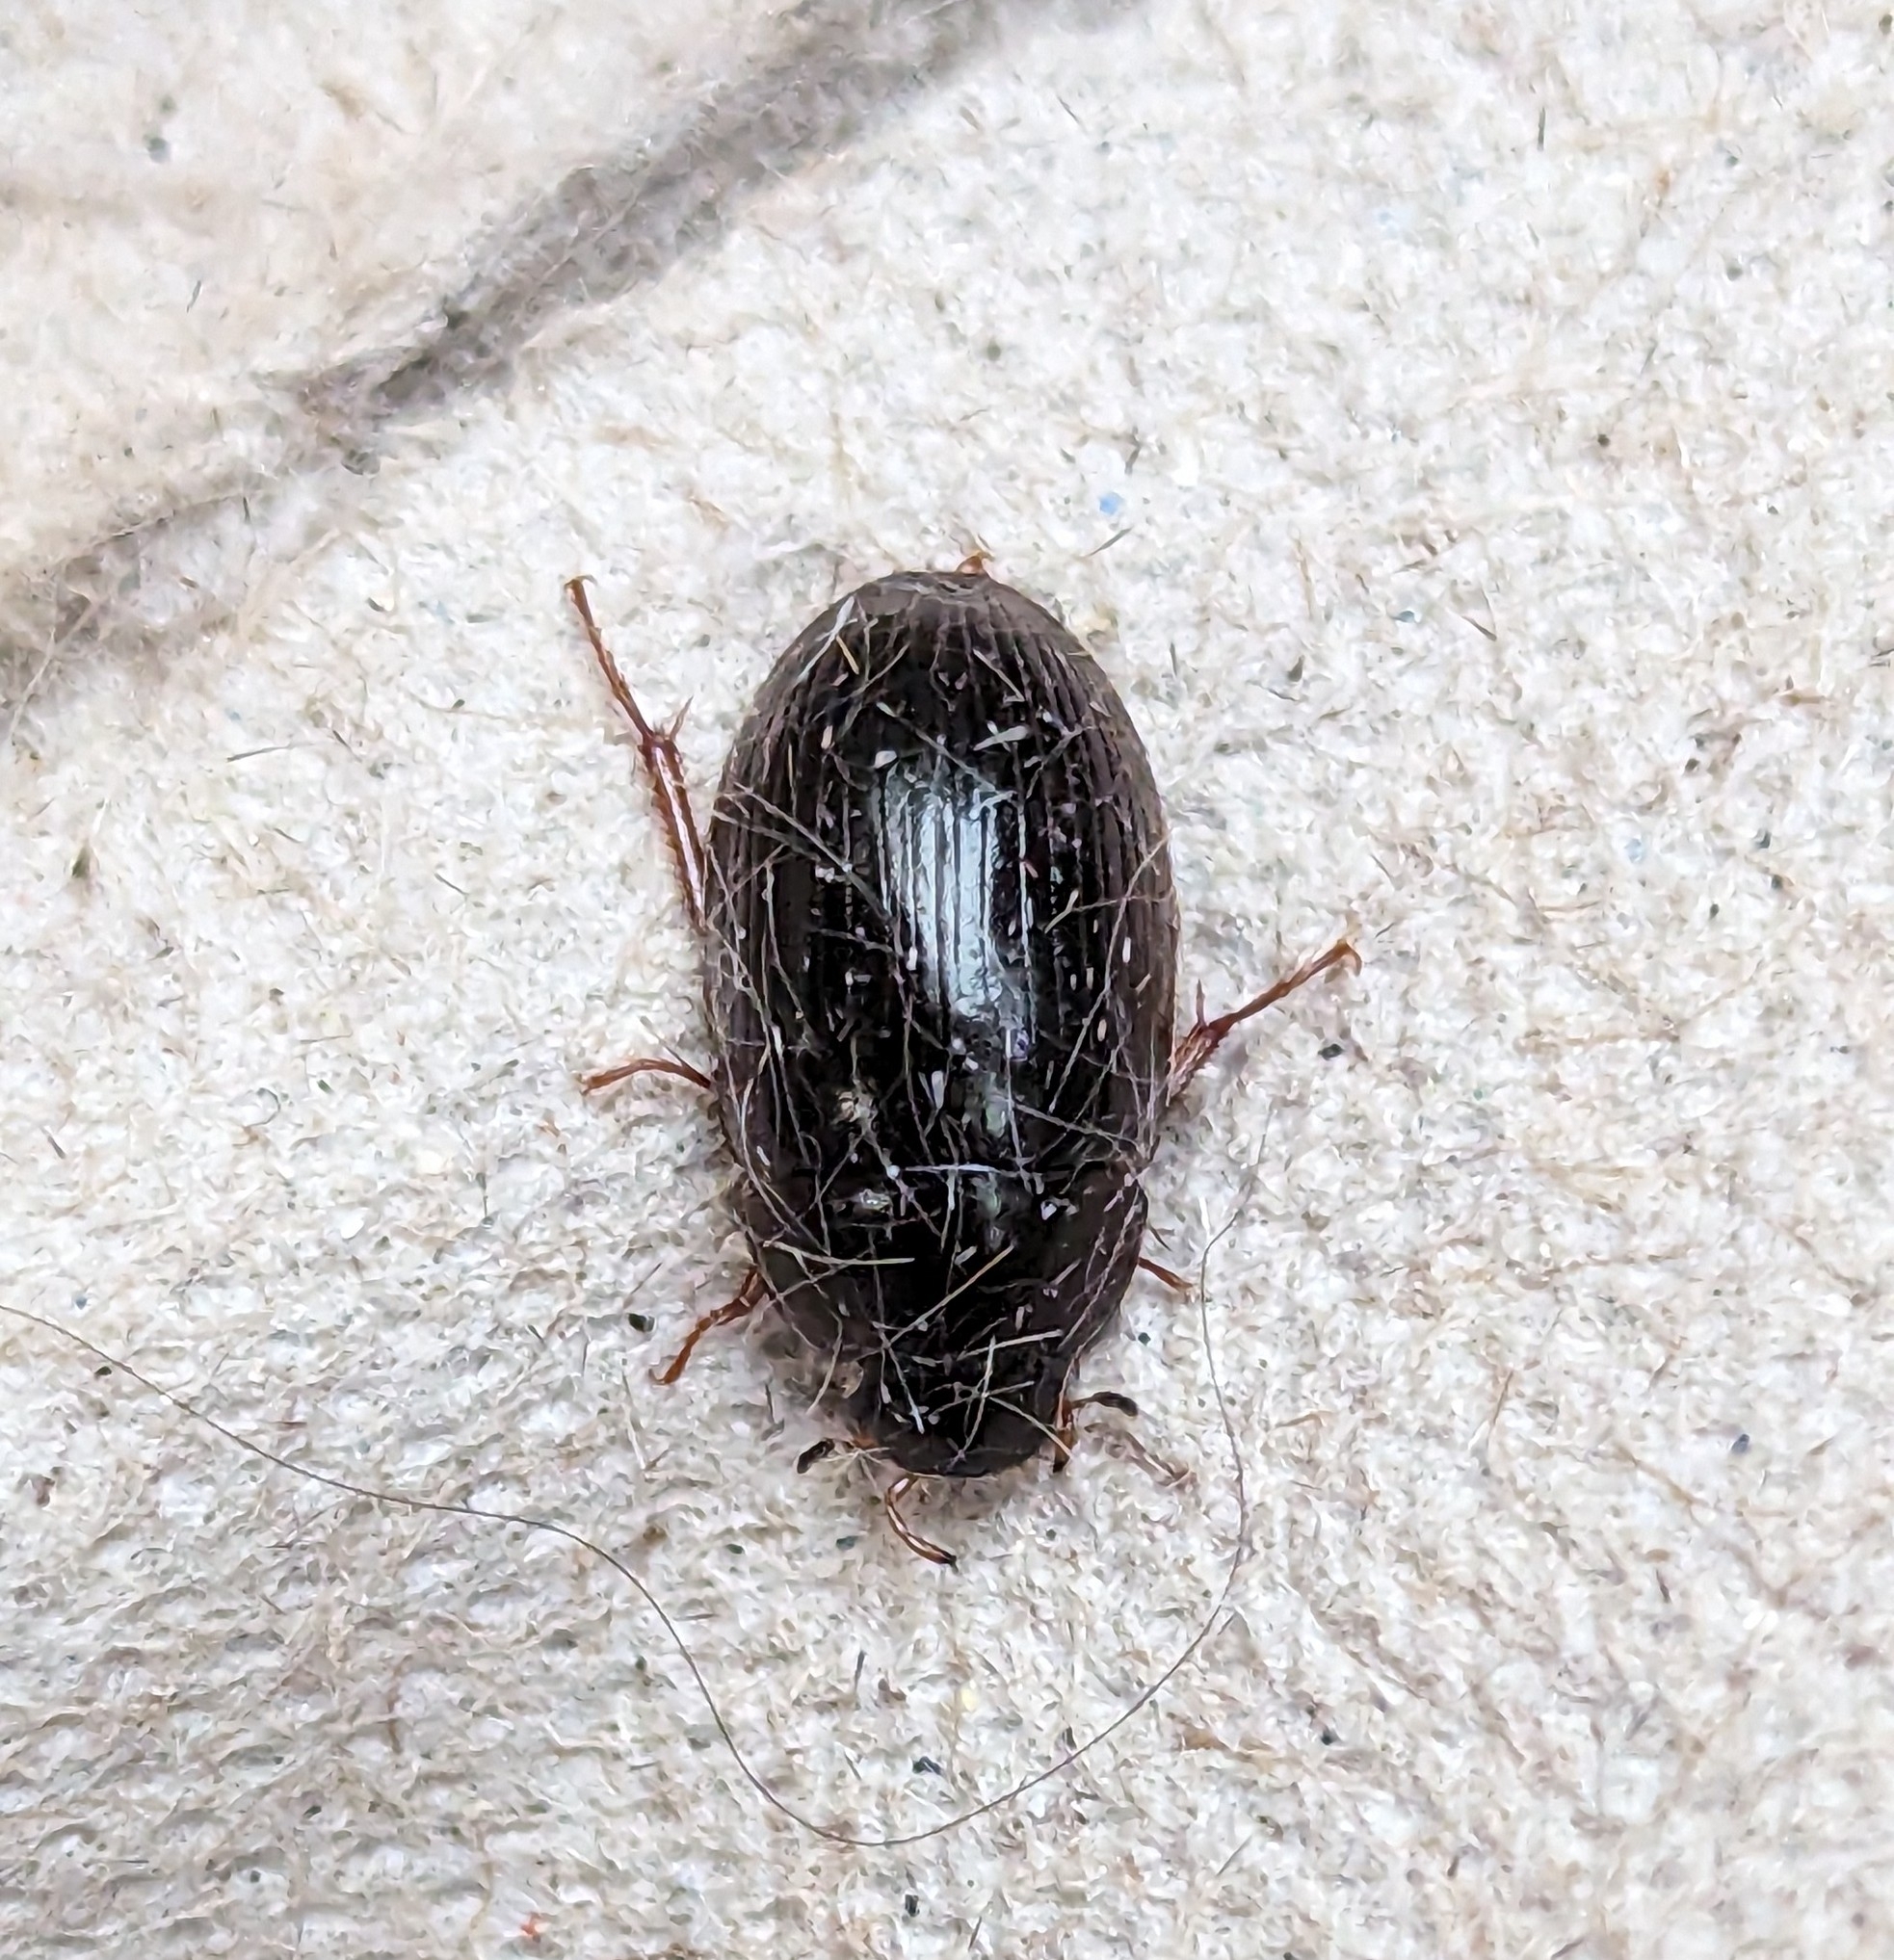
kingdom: Animalia
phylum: Arthropoda
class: Insecta
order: Coleoptera
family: Hydrophilidae
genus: Hydrobius
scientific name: Hydrobius fuscipes
